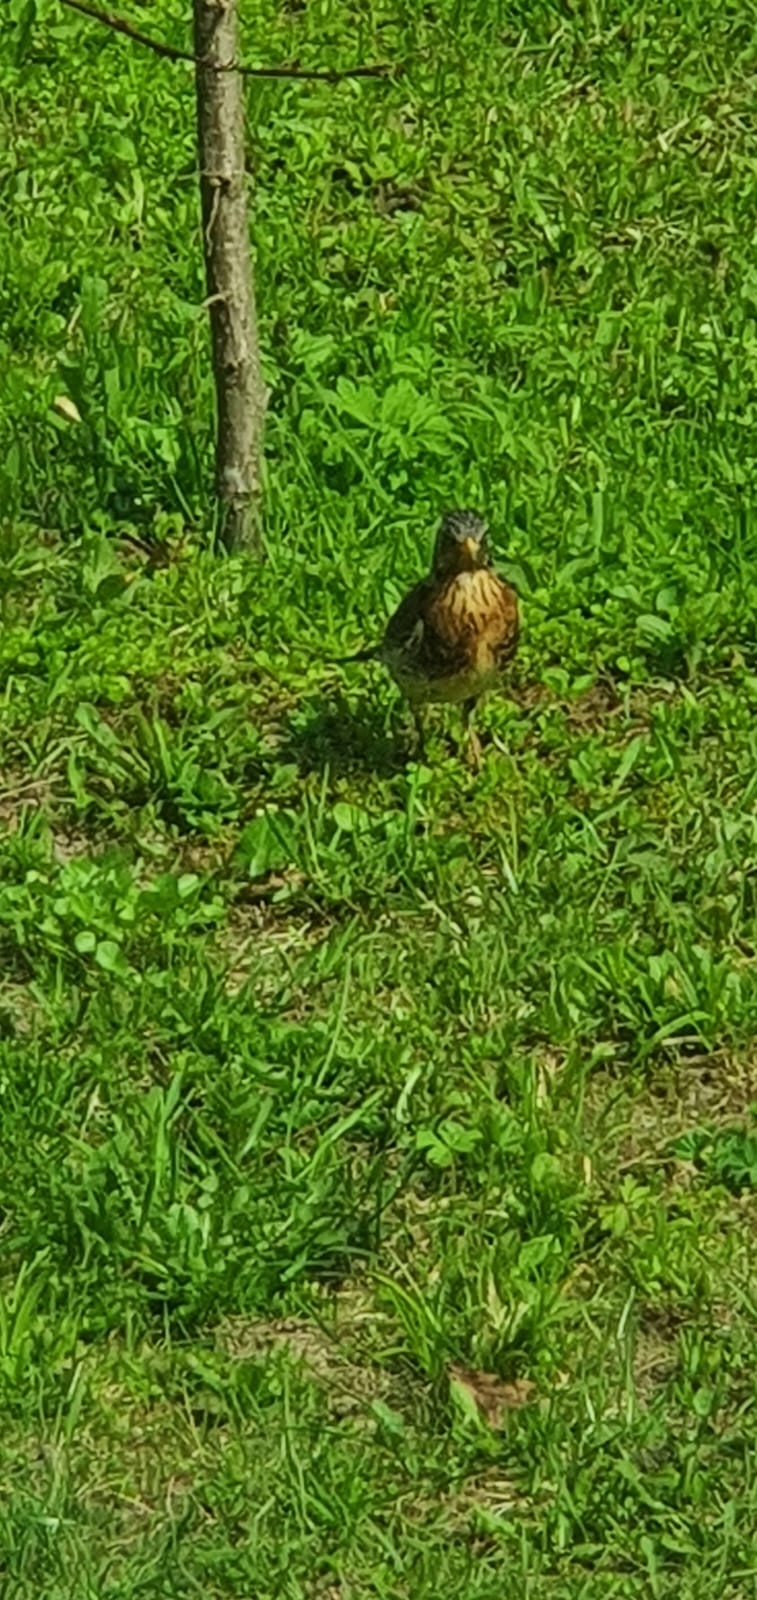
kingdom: Animalia
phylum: Chordata
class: Aves
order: Passeriformes
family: Turdidae
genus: Turdus
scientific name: Turdus pilaris
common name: Fieldfare
